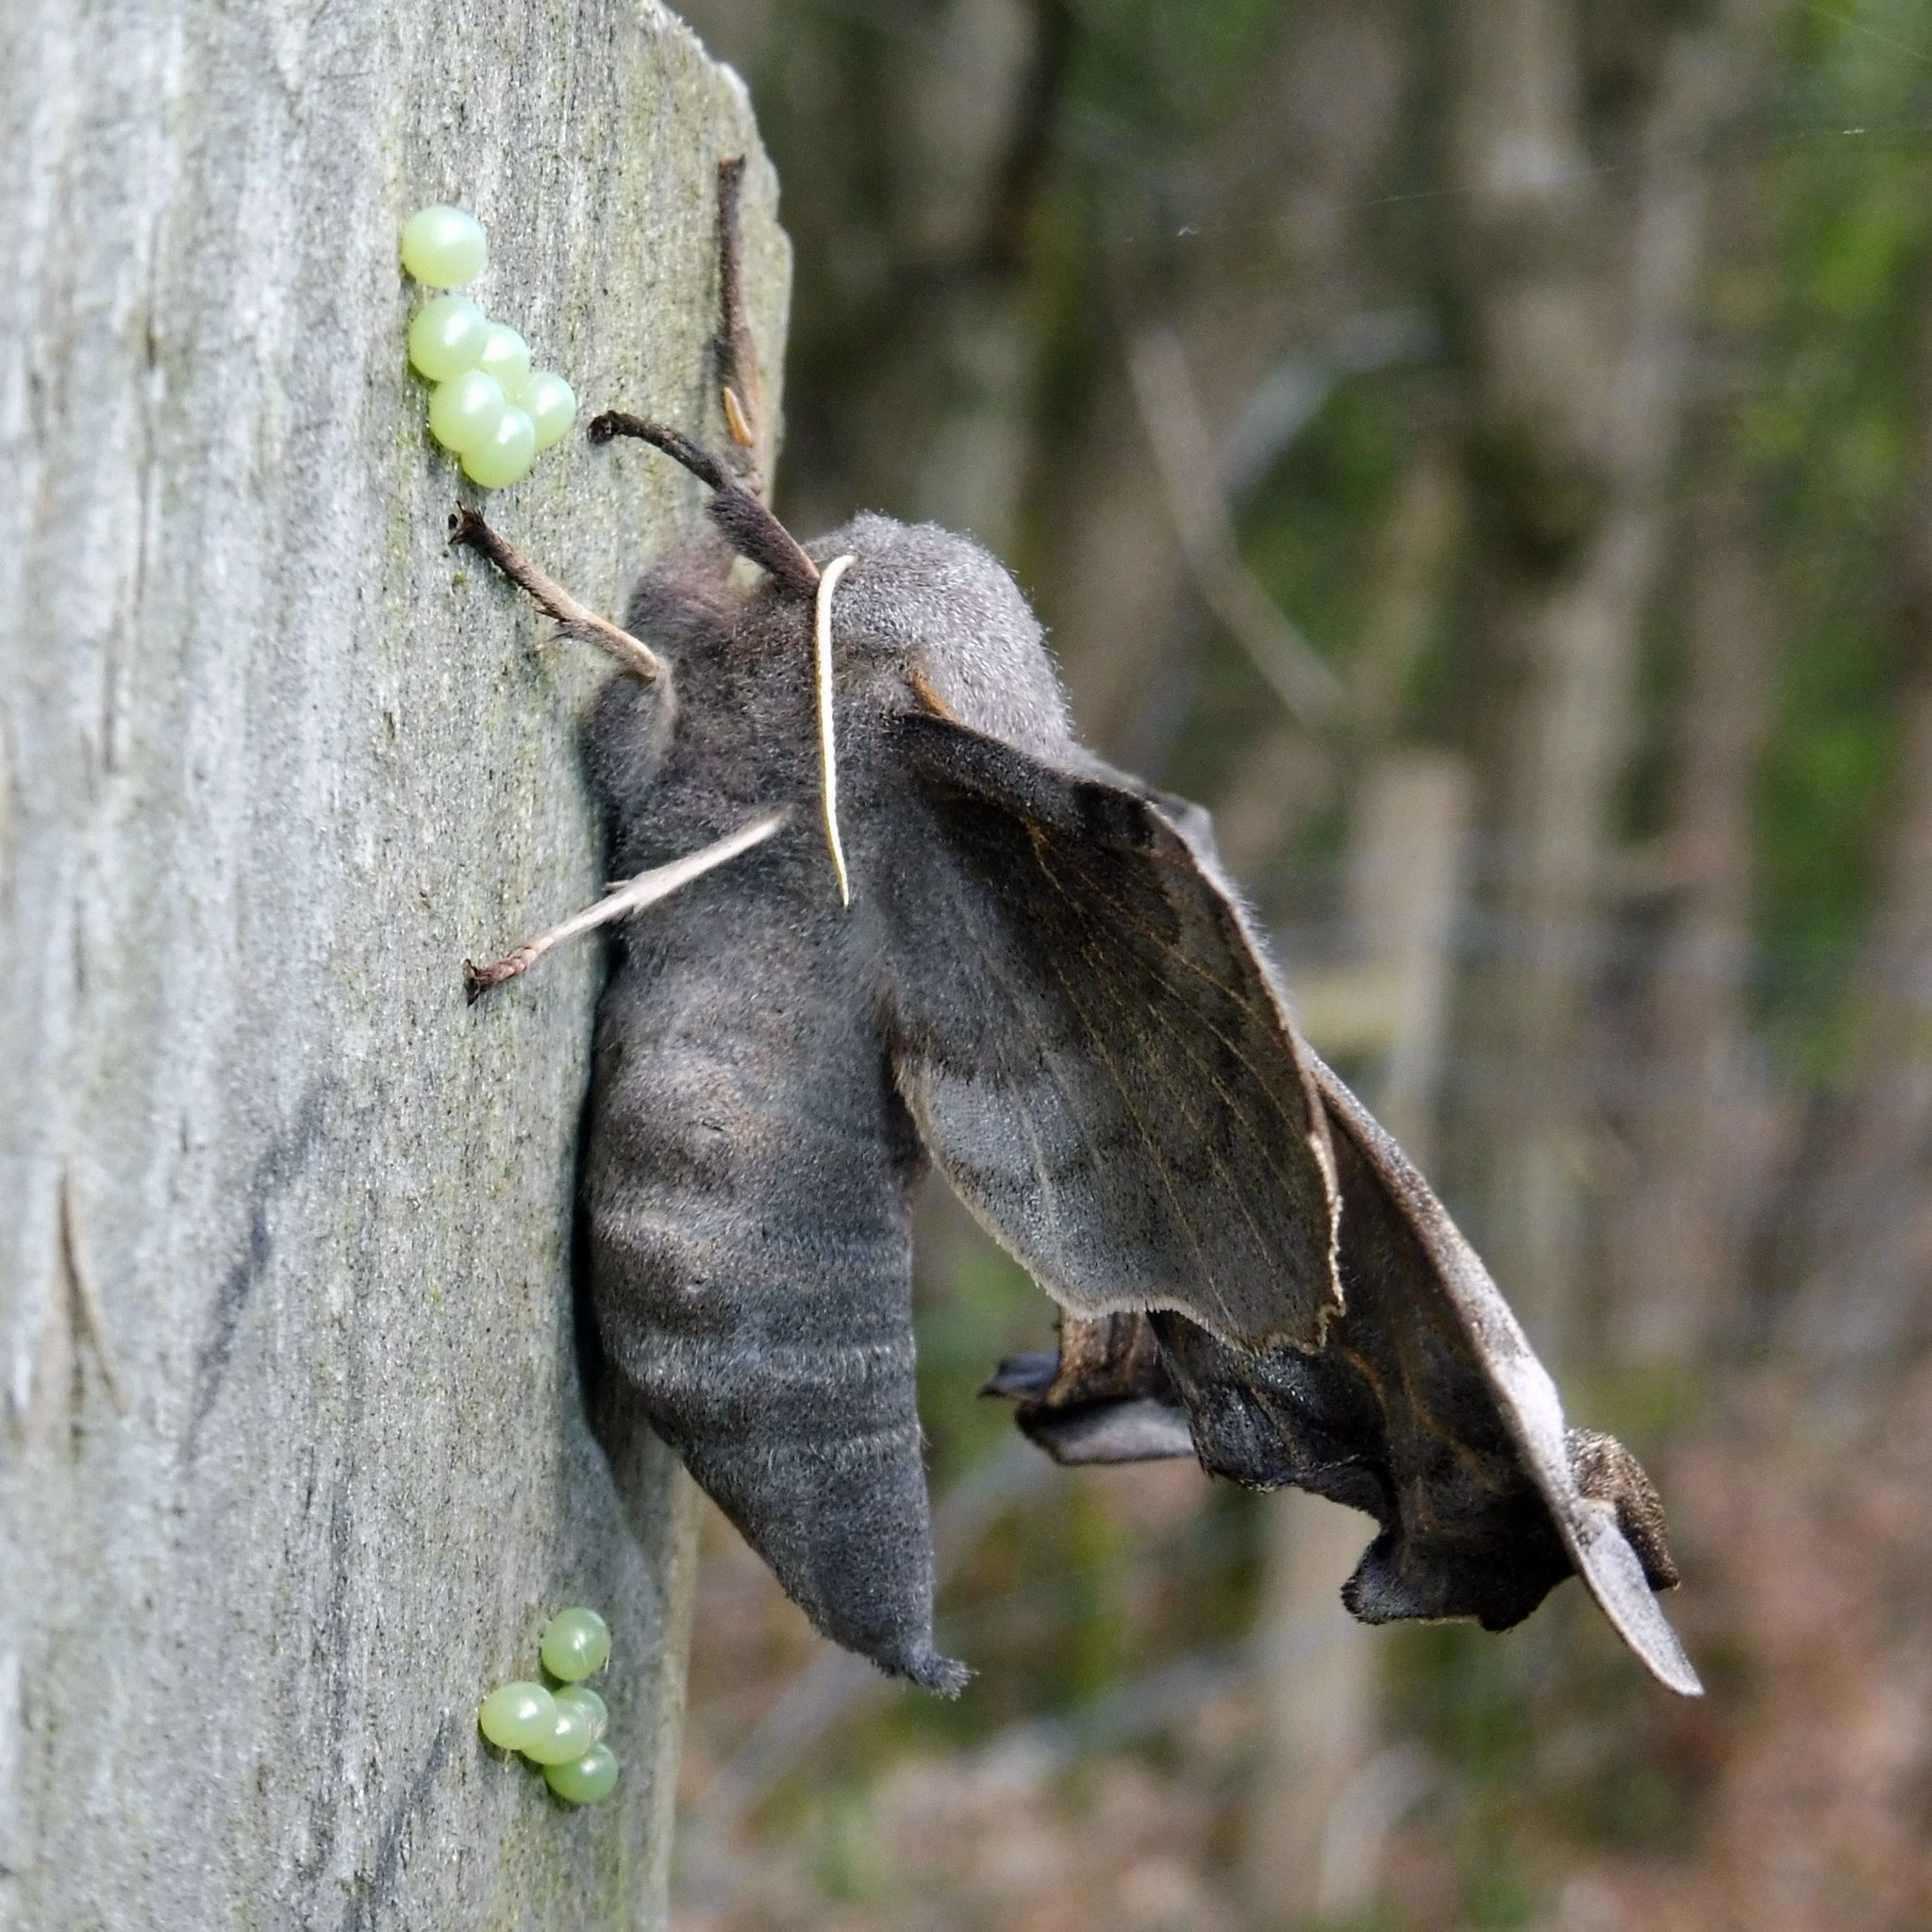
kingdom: Animalia
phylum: Arthropoda
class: Insecta
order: Lepidoptera
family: Sphingidae
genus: Laothoe
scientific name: Laothoe populi
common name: Poplar hawk-moth
